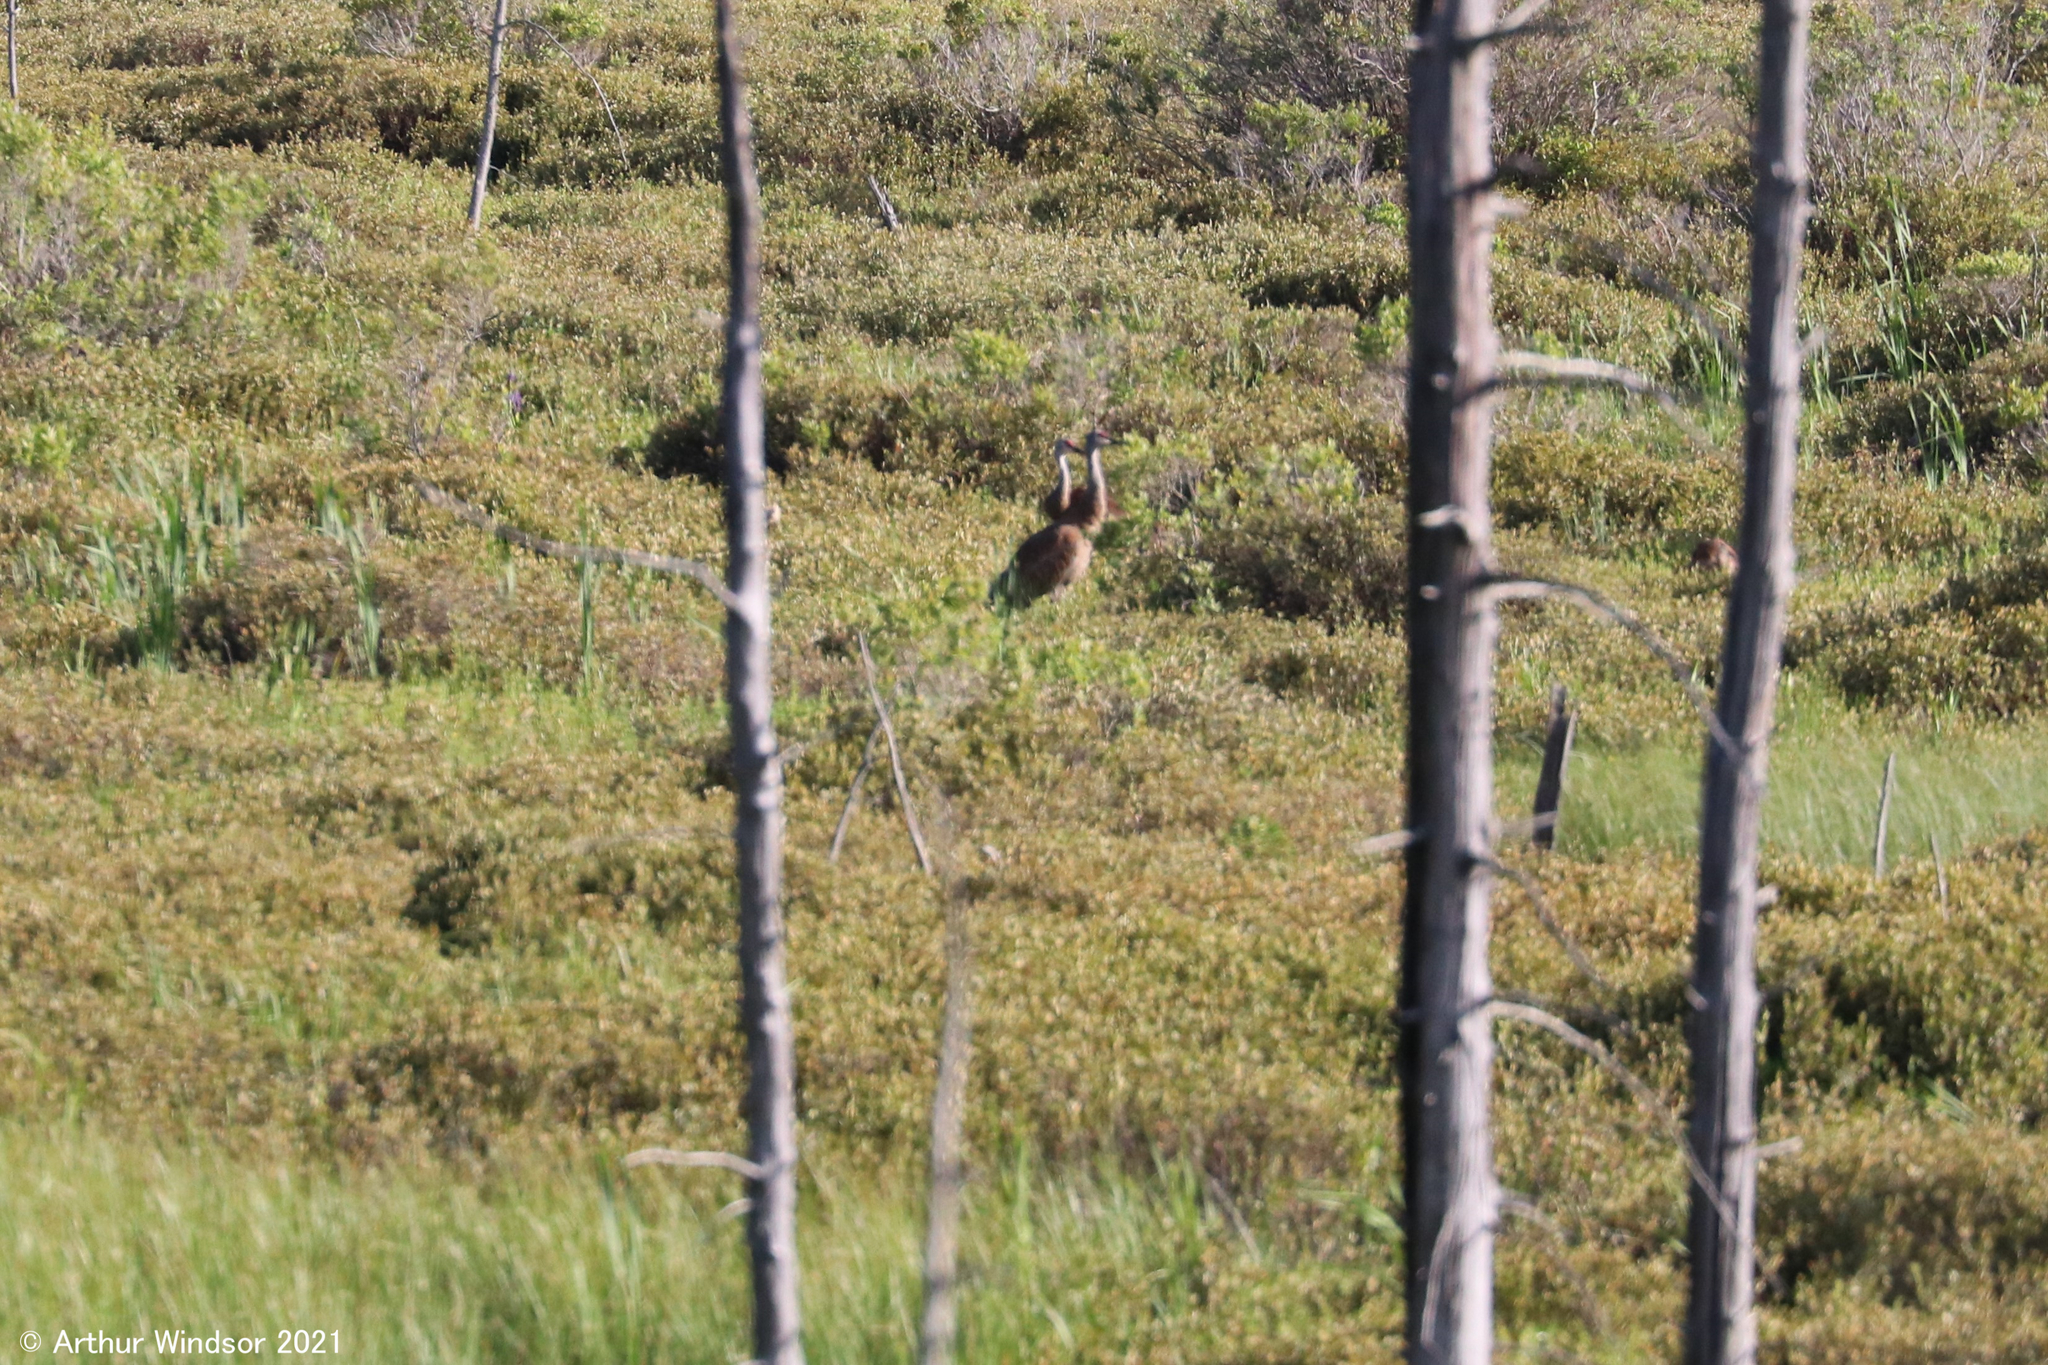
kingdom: Animalia
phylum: Chordata
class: Aves
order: Gruiformes
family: Gruidae
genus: Grus
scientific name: Grus canadensis
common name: Sandhill crane
